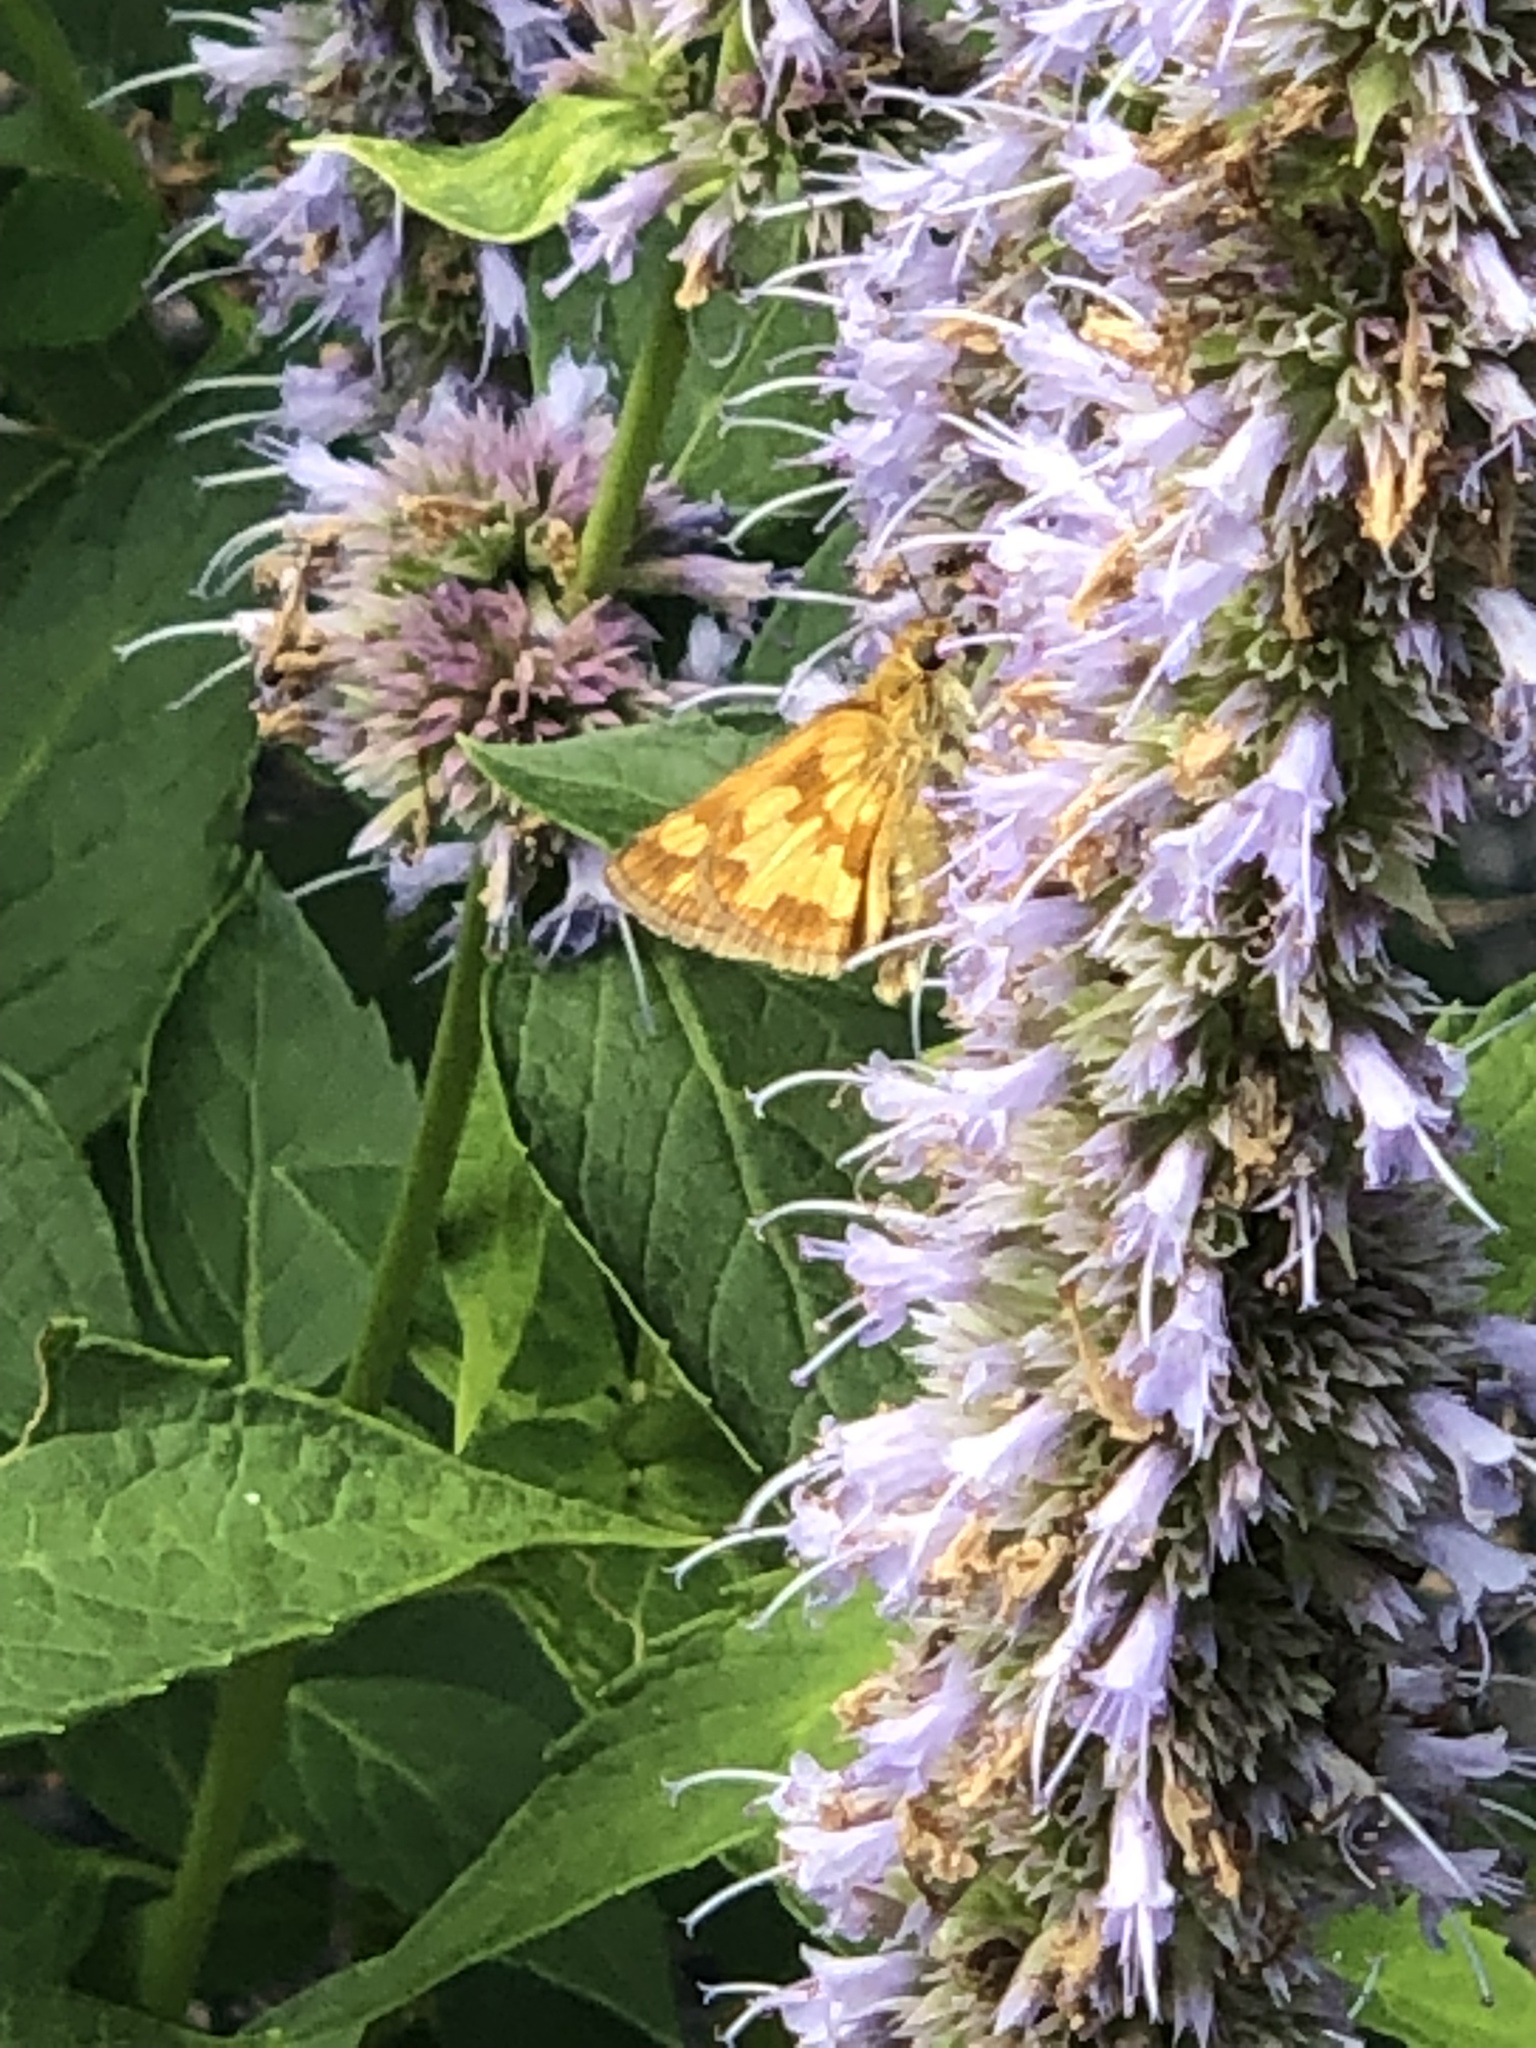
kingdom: Animalia
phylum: Arthropoda
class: Insecta
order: Lepidoptera
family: Hesperiidae
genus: Polites
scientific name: Polites coras
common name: Peck's skipper
